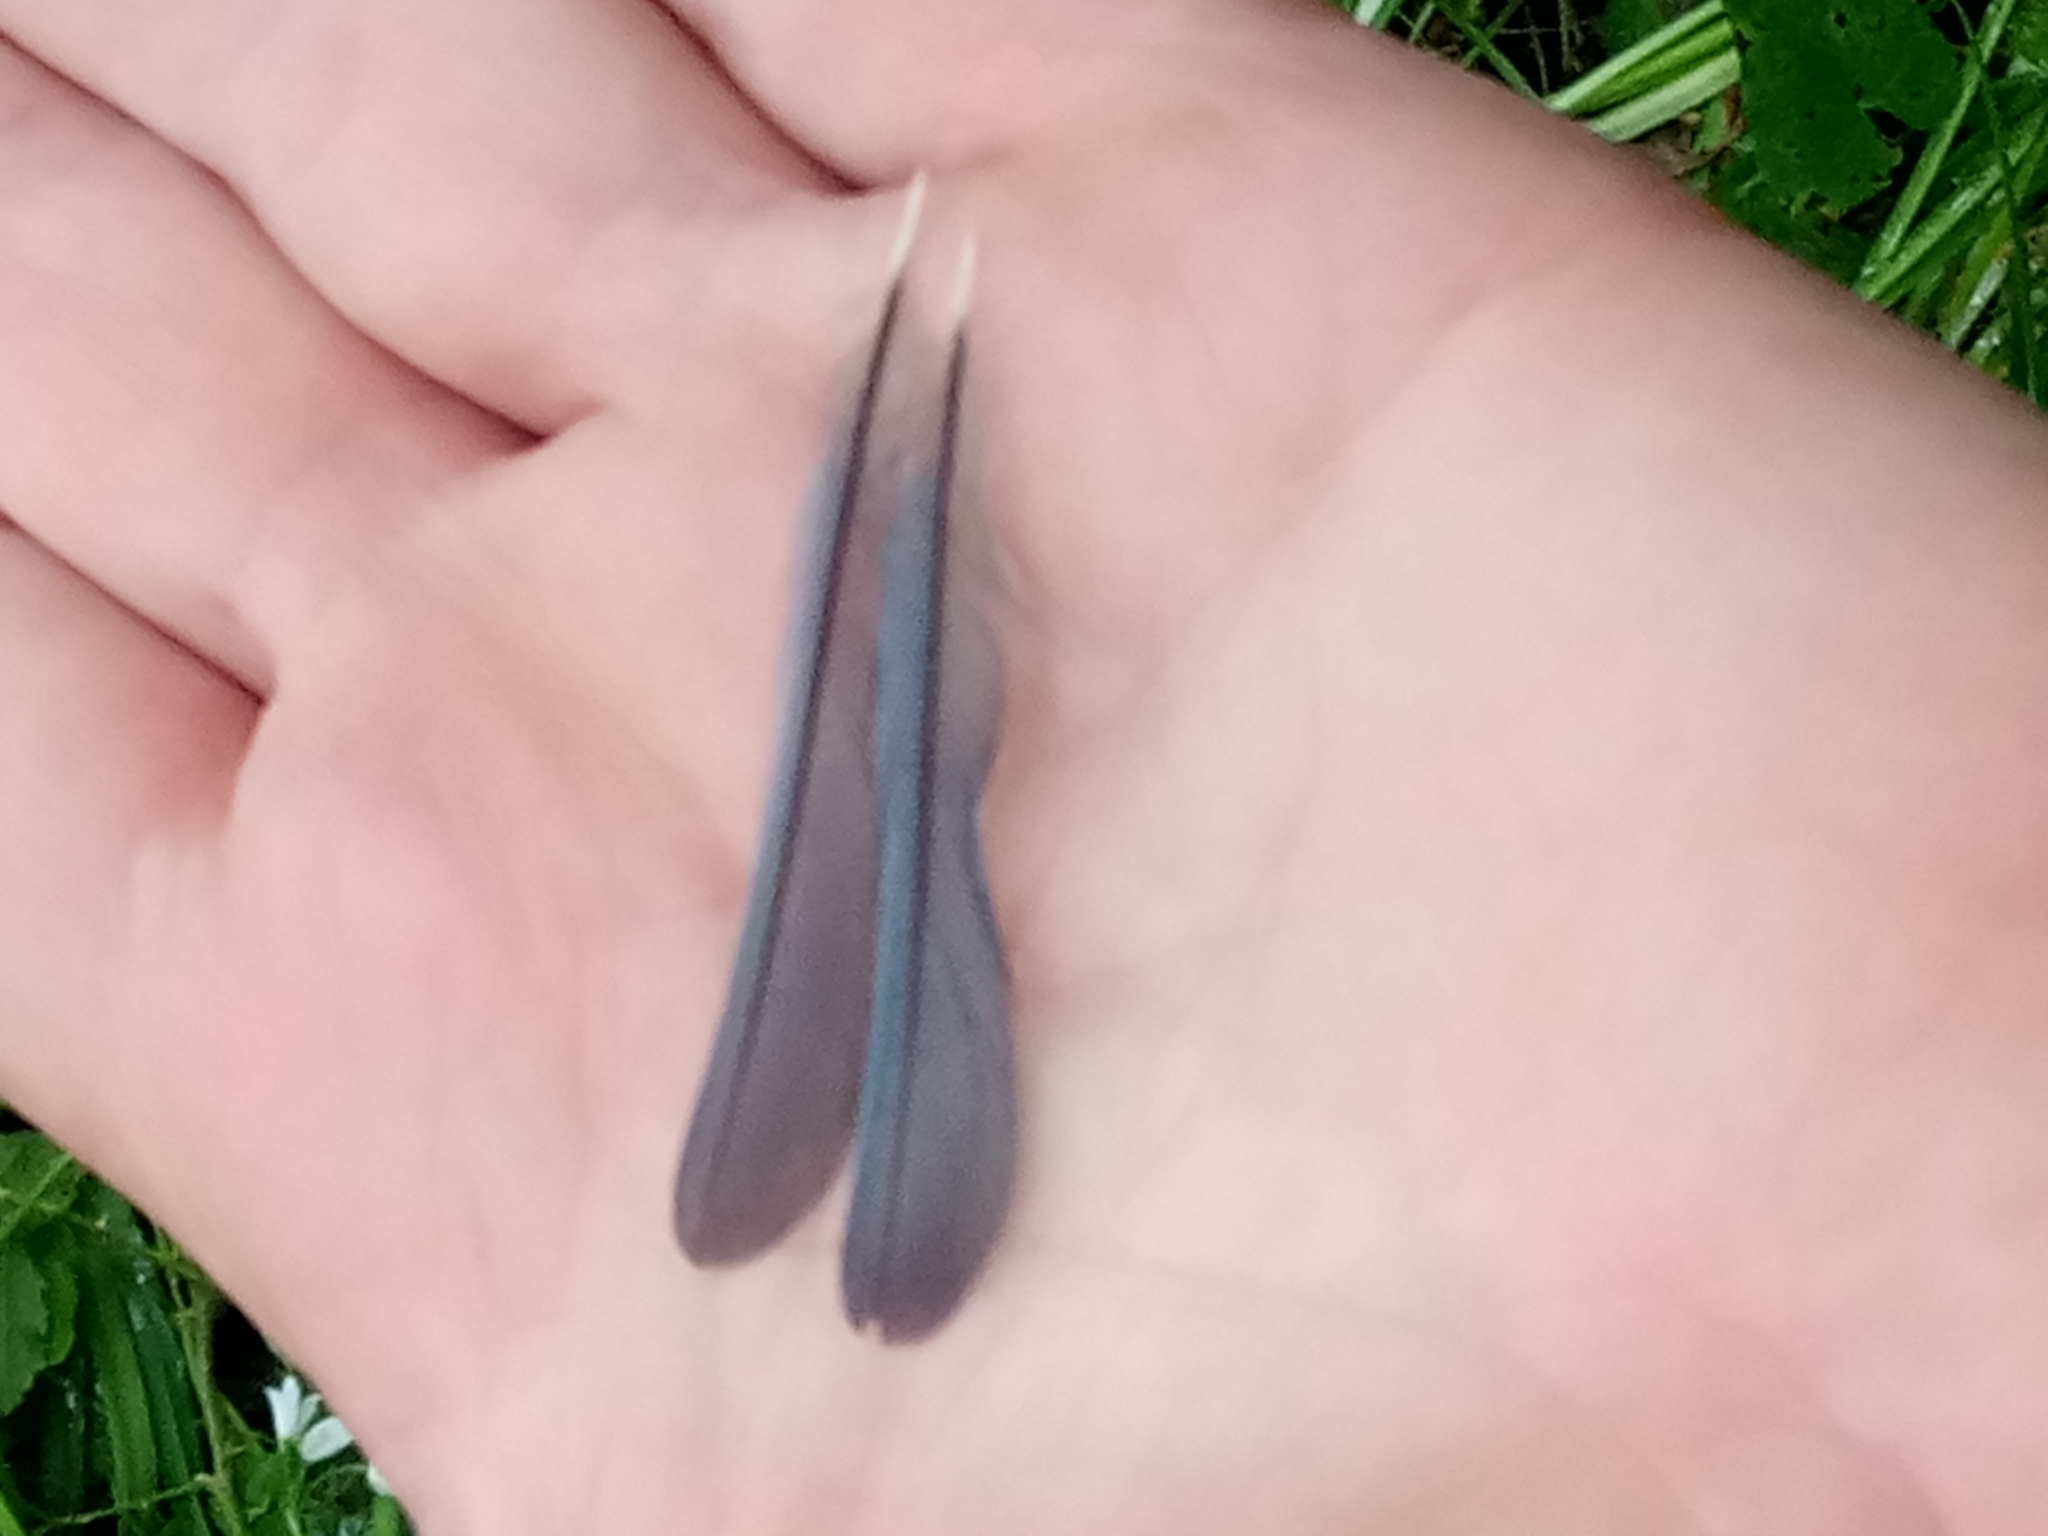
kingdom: Animalia
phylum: Chordata
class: Aves
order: Passeriformes
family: Paridae
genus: Parus
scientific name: Parus major
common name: Great tit
